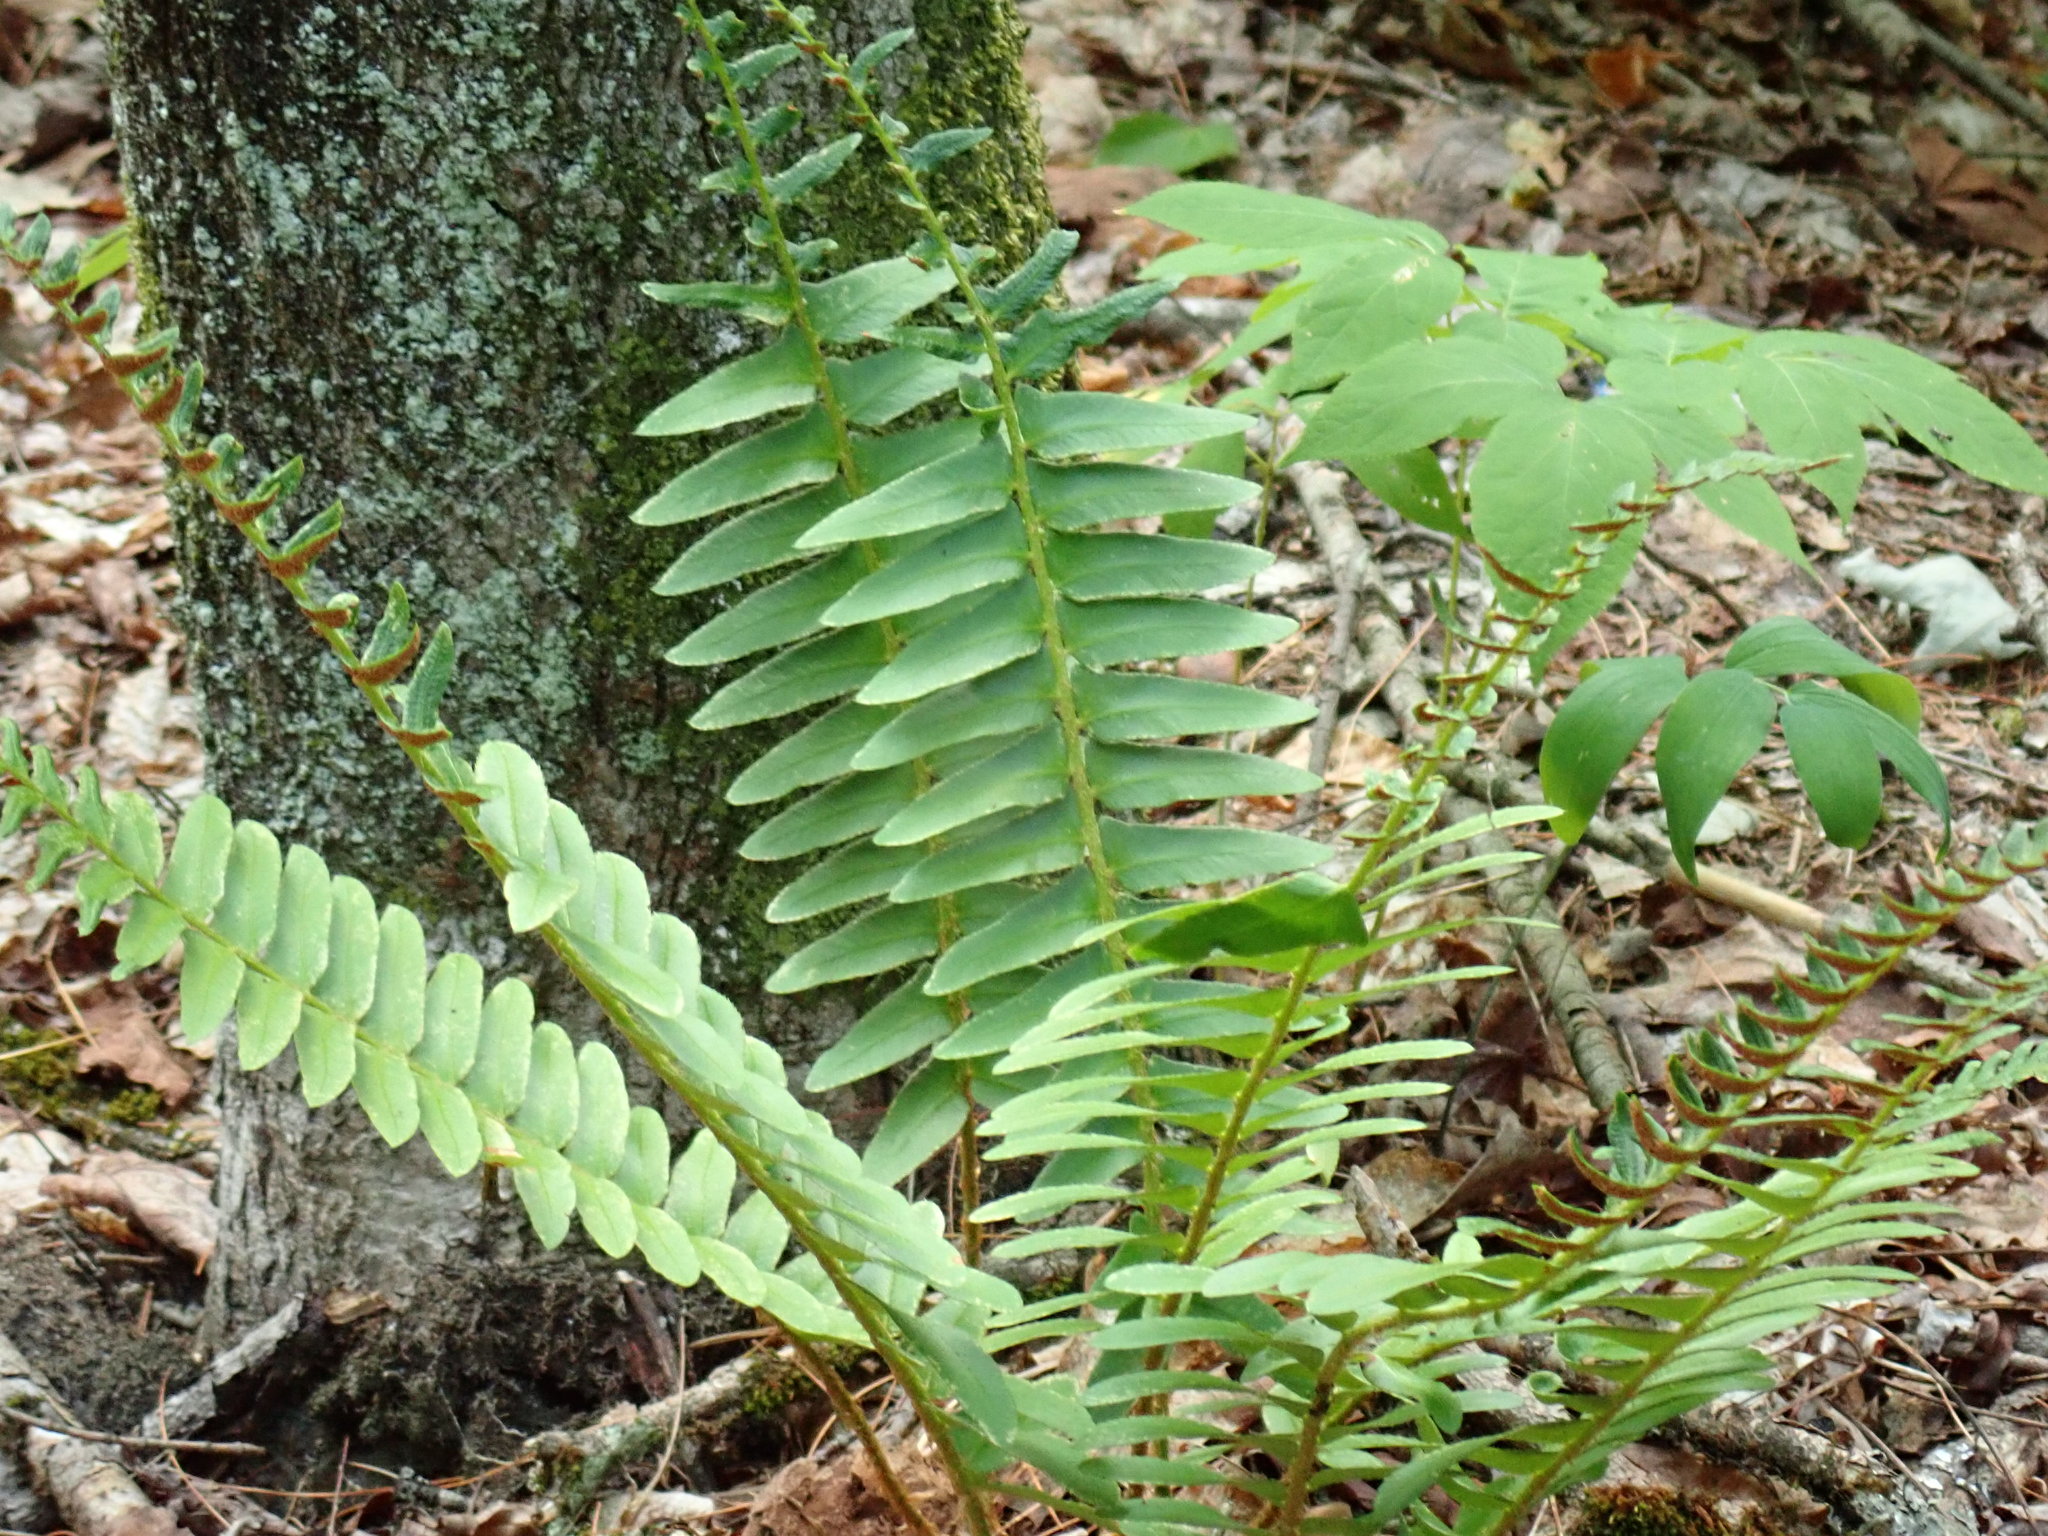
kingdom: Plantae
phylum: Tracheophyta
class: Polypodiopsida
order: Polypodiales
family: Dryopteridaceae
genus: Polystichum
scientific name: Polystichum acrostichoides
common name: Christmas fern
